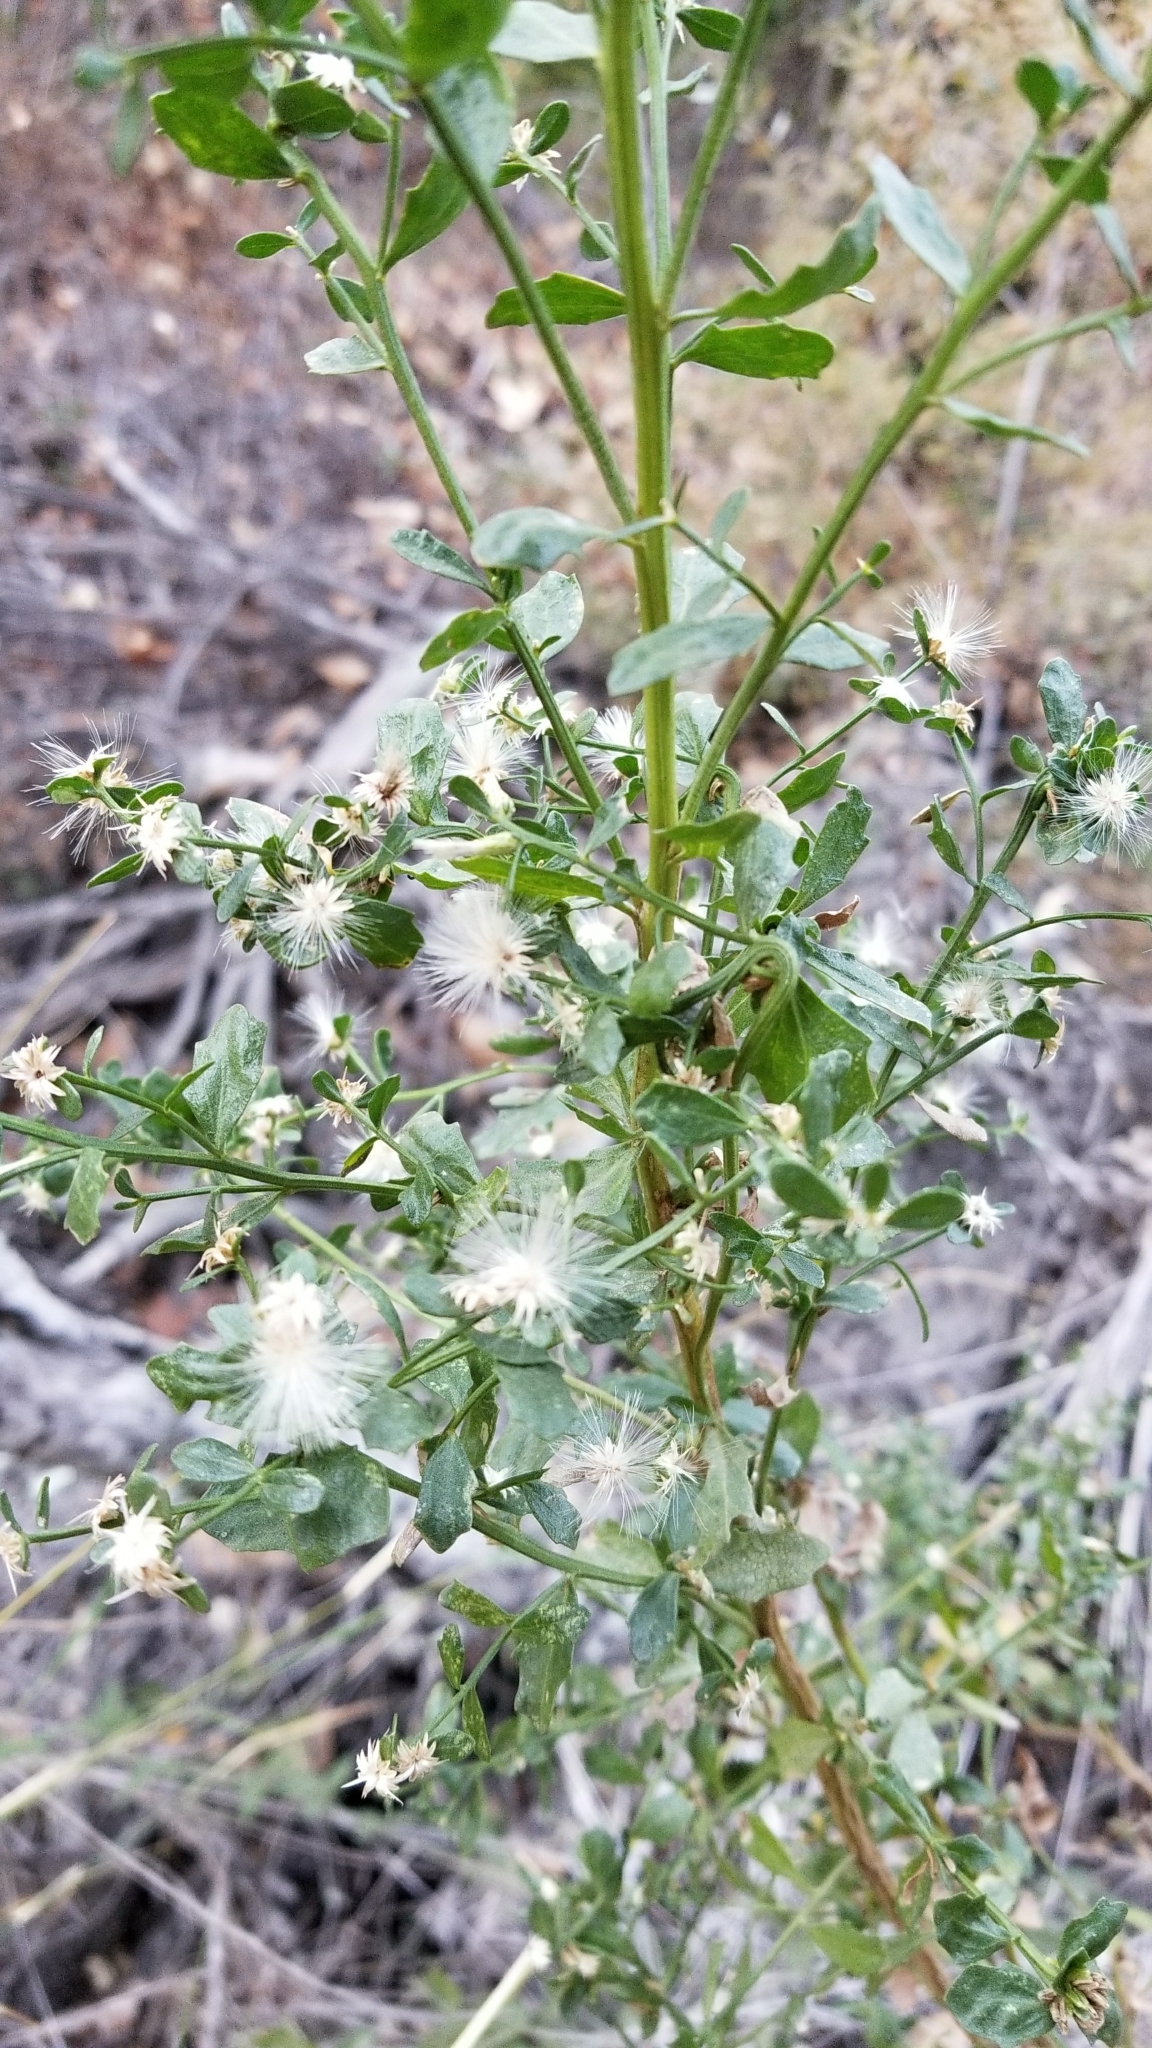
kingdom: Plantae
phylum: Tracheophyta
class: Magnoliopsida
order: Asterales
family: Asteraceae
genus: Baccharis
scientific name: Baccharis pilularis
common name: Coyotebrush
